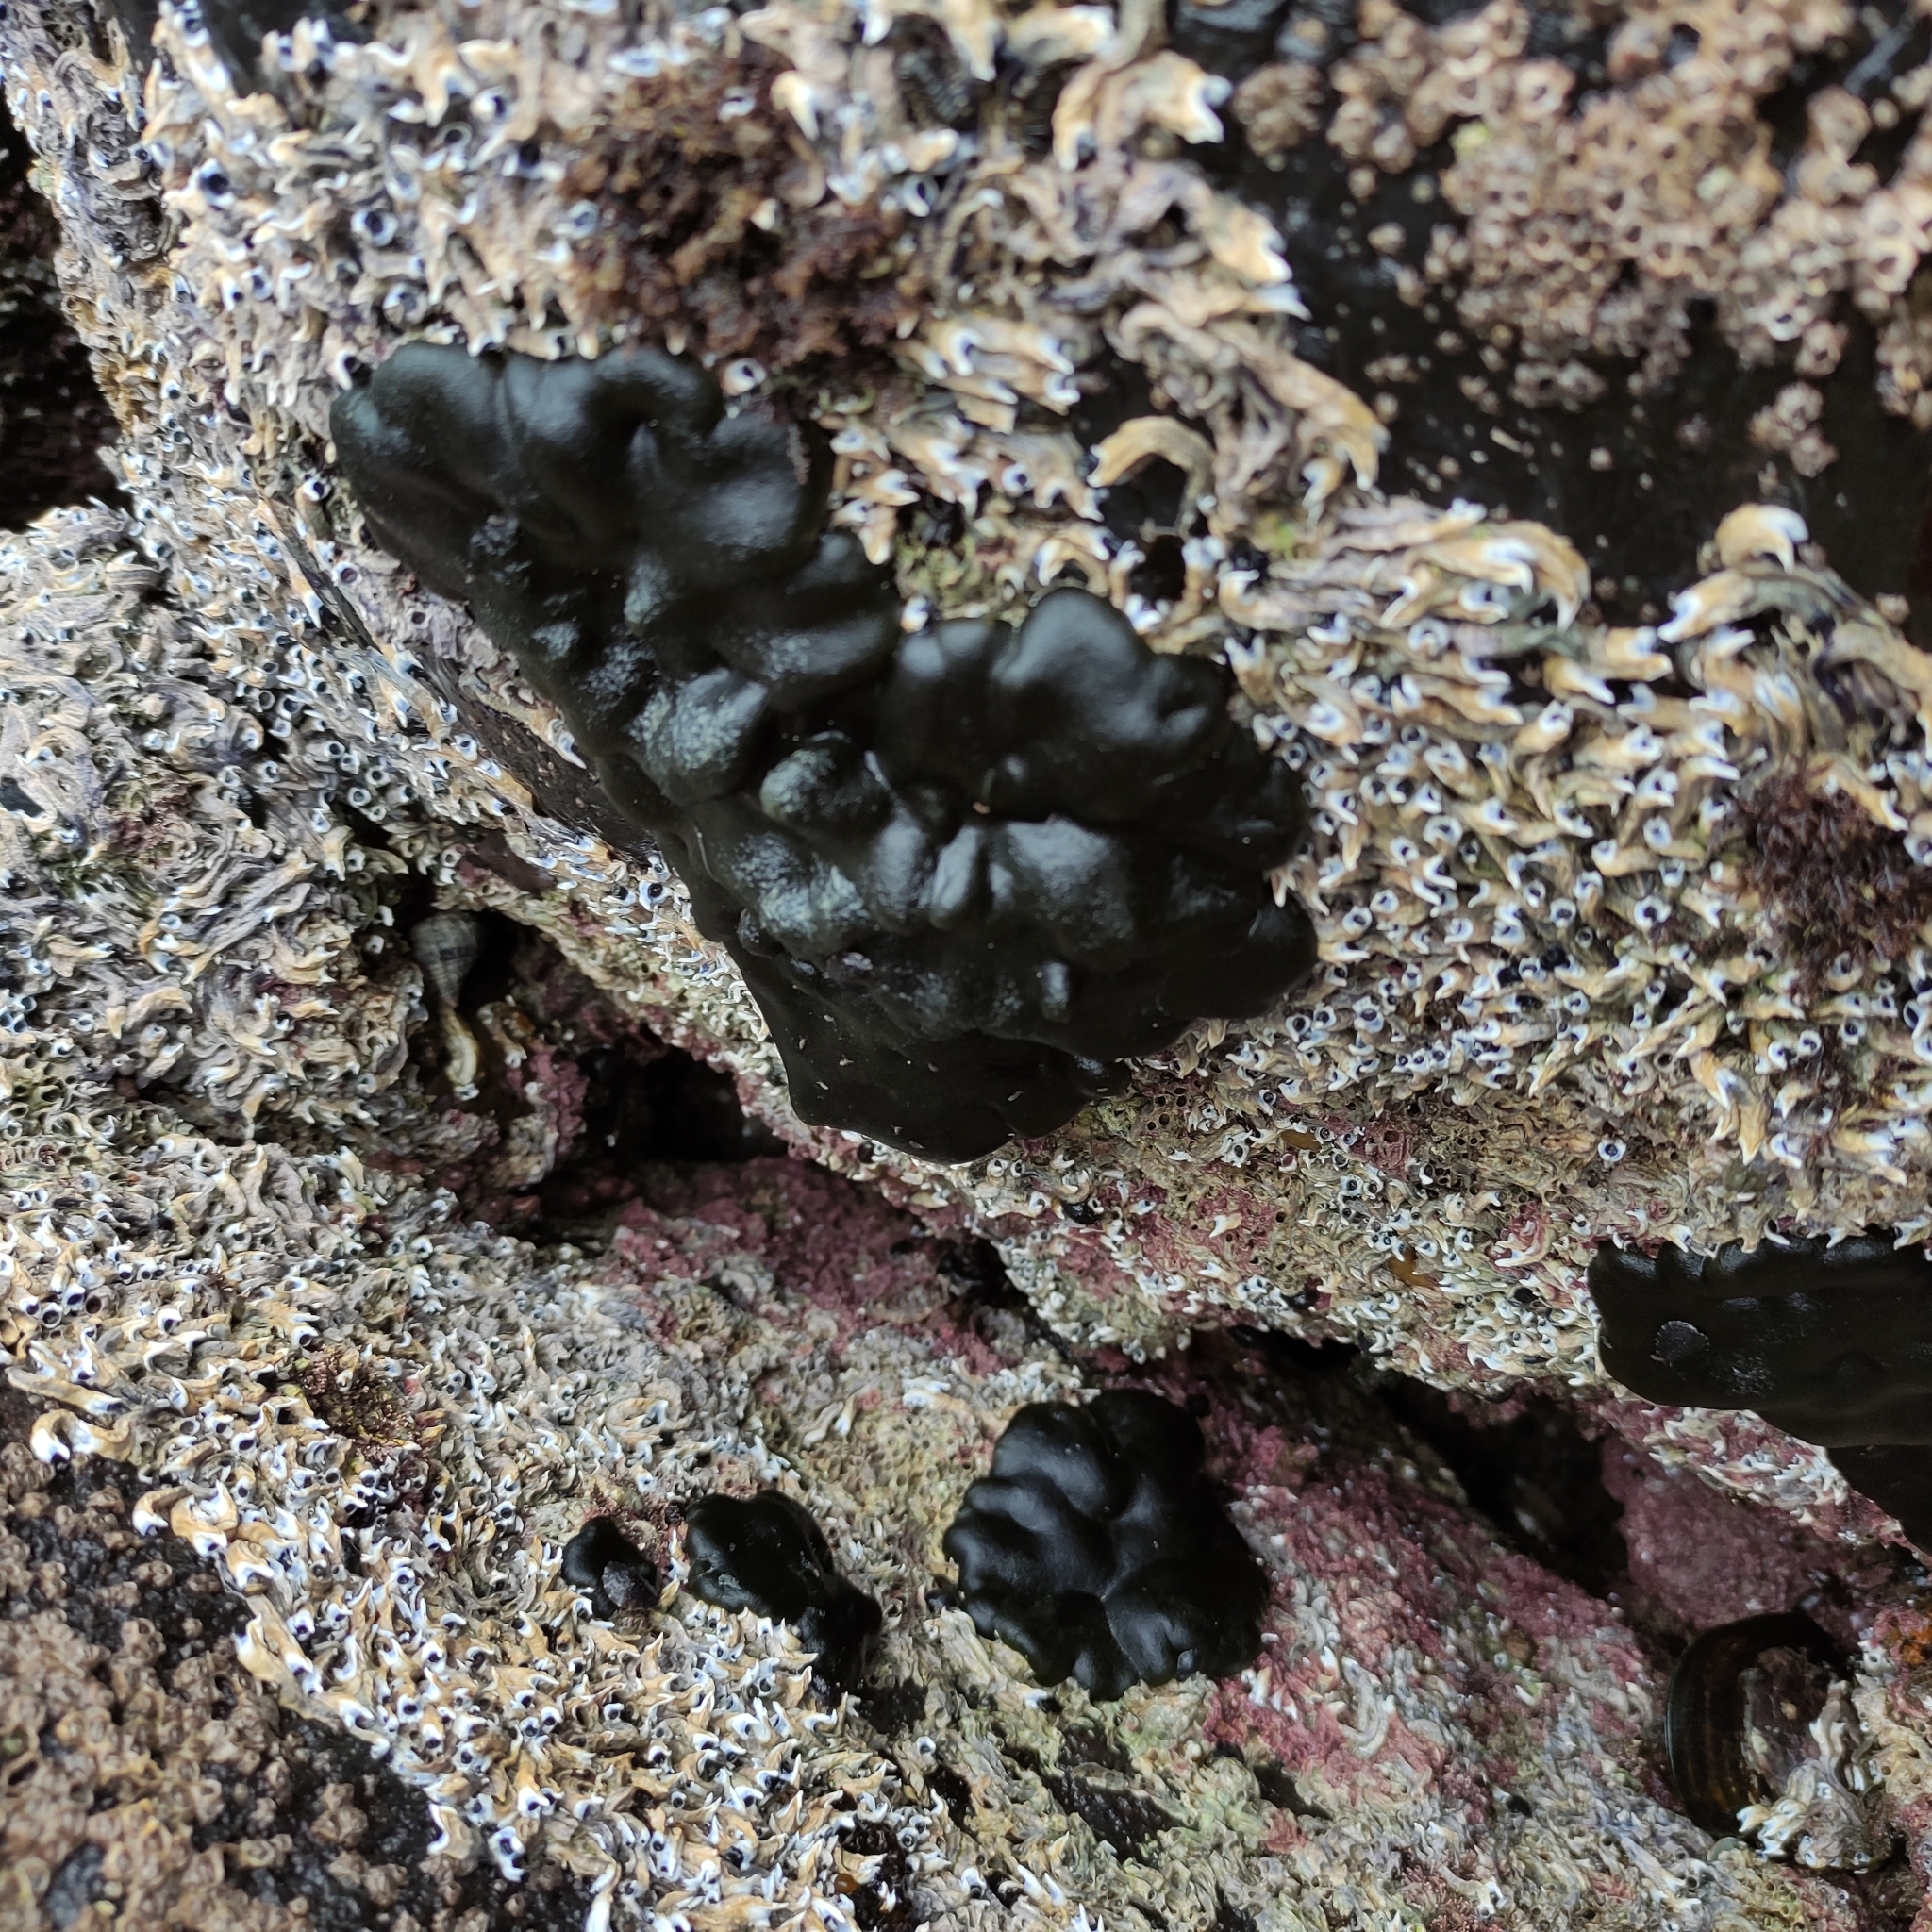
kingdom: Plantae
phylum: Chlorophyta
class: Ulvophyceae
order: Bryopsidales
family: Codiaceae
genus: Codium
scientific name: Codium convolutum
